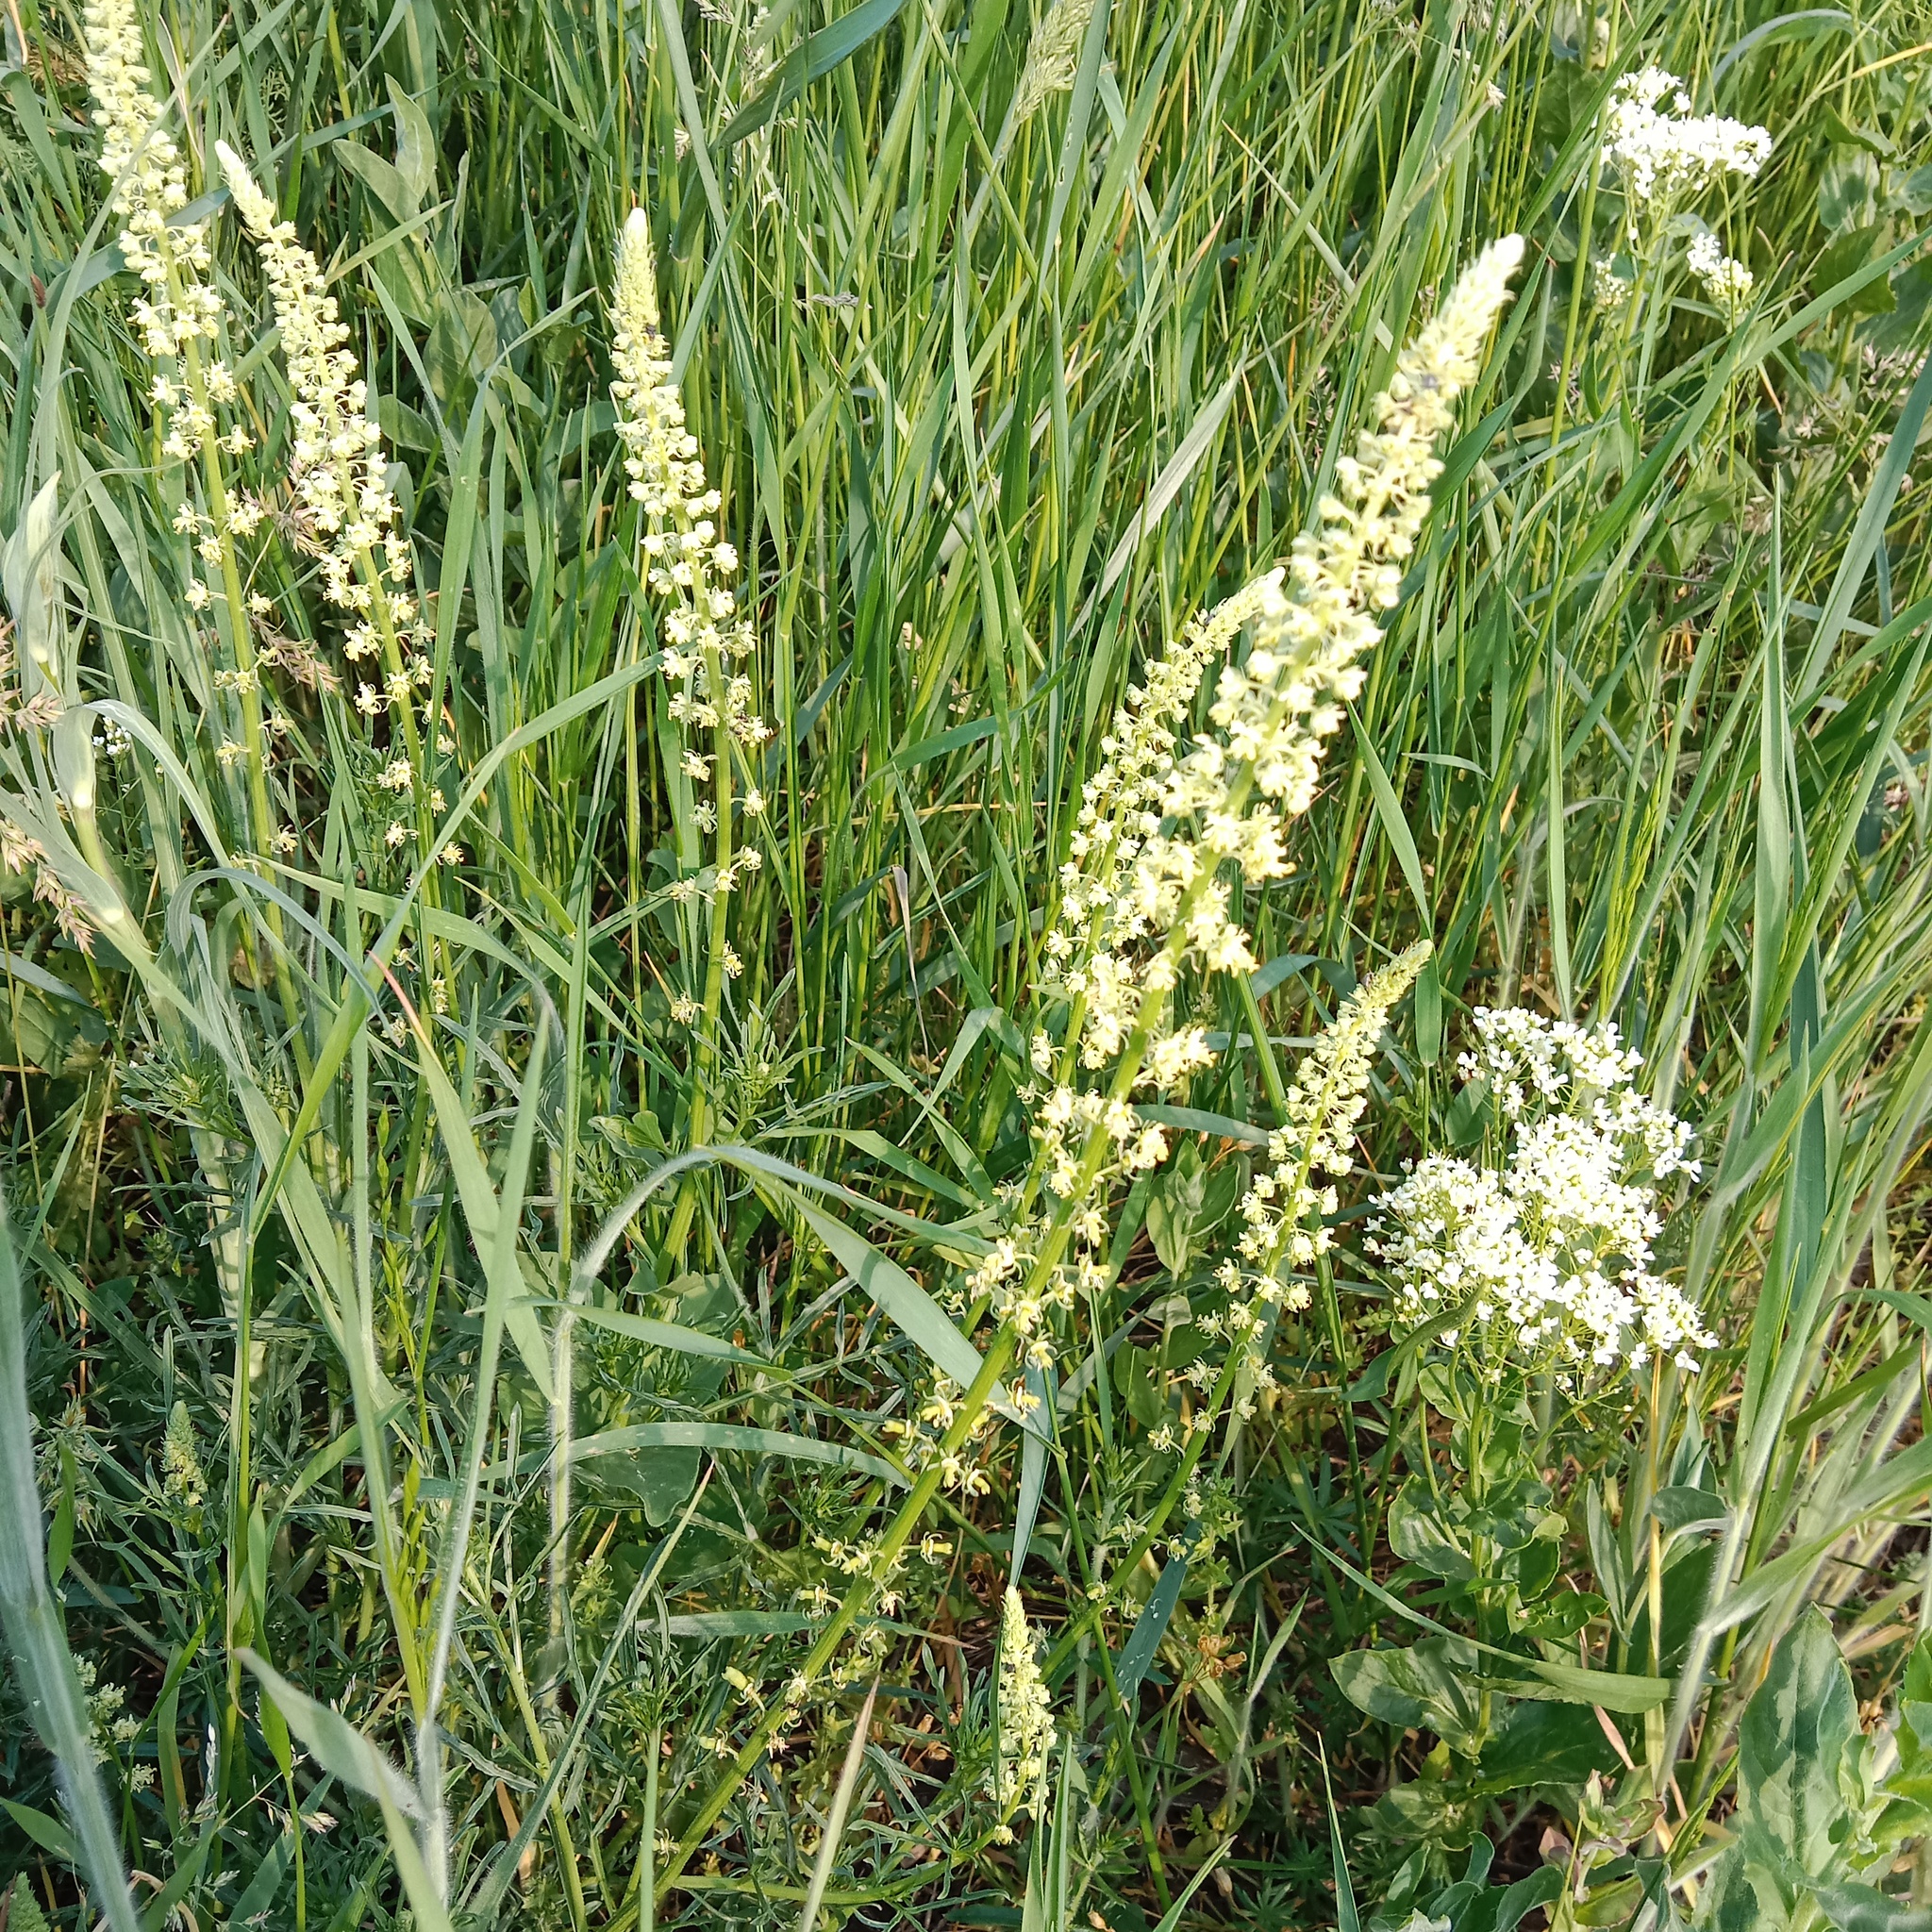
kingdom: Plantae
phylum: Tracheophyta
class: Magnoliopsida
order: Brassicales
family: Resedaceae
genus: Reseda
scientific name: Reseda lutea
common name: Wild mignonette
